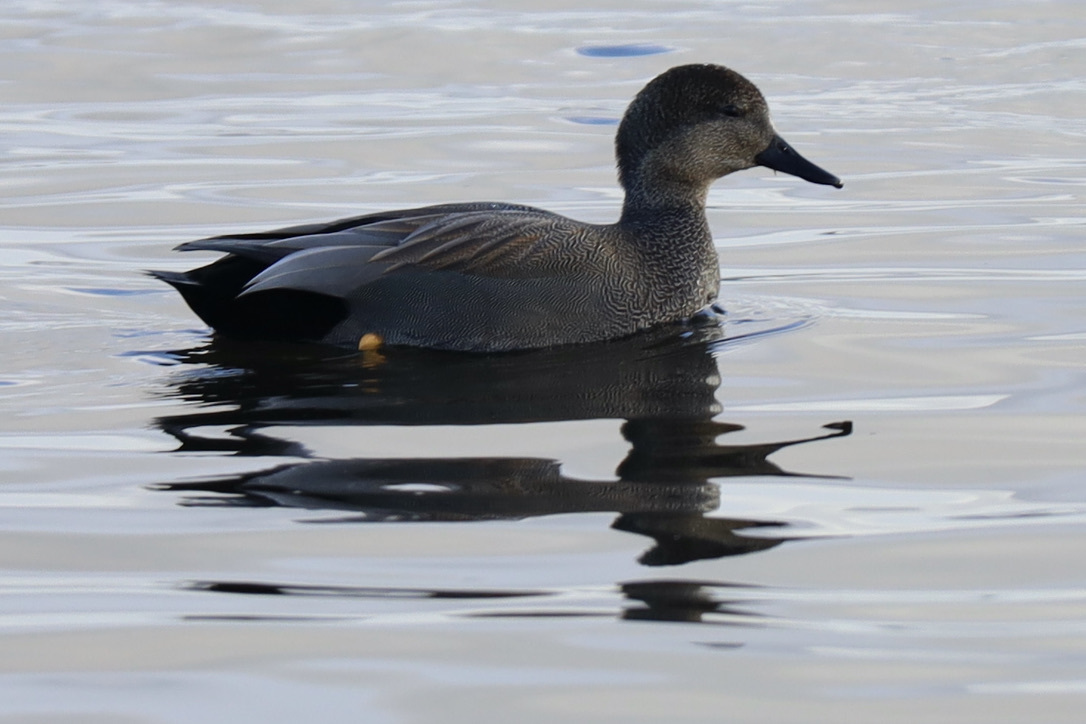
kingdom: Animalia
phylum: Chordata
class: Aves
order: Anseriformes
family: Anatidae
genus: Mareca
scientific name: Mareca strepera
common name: Gadwall
